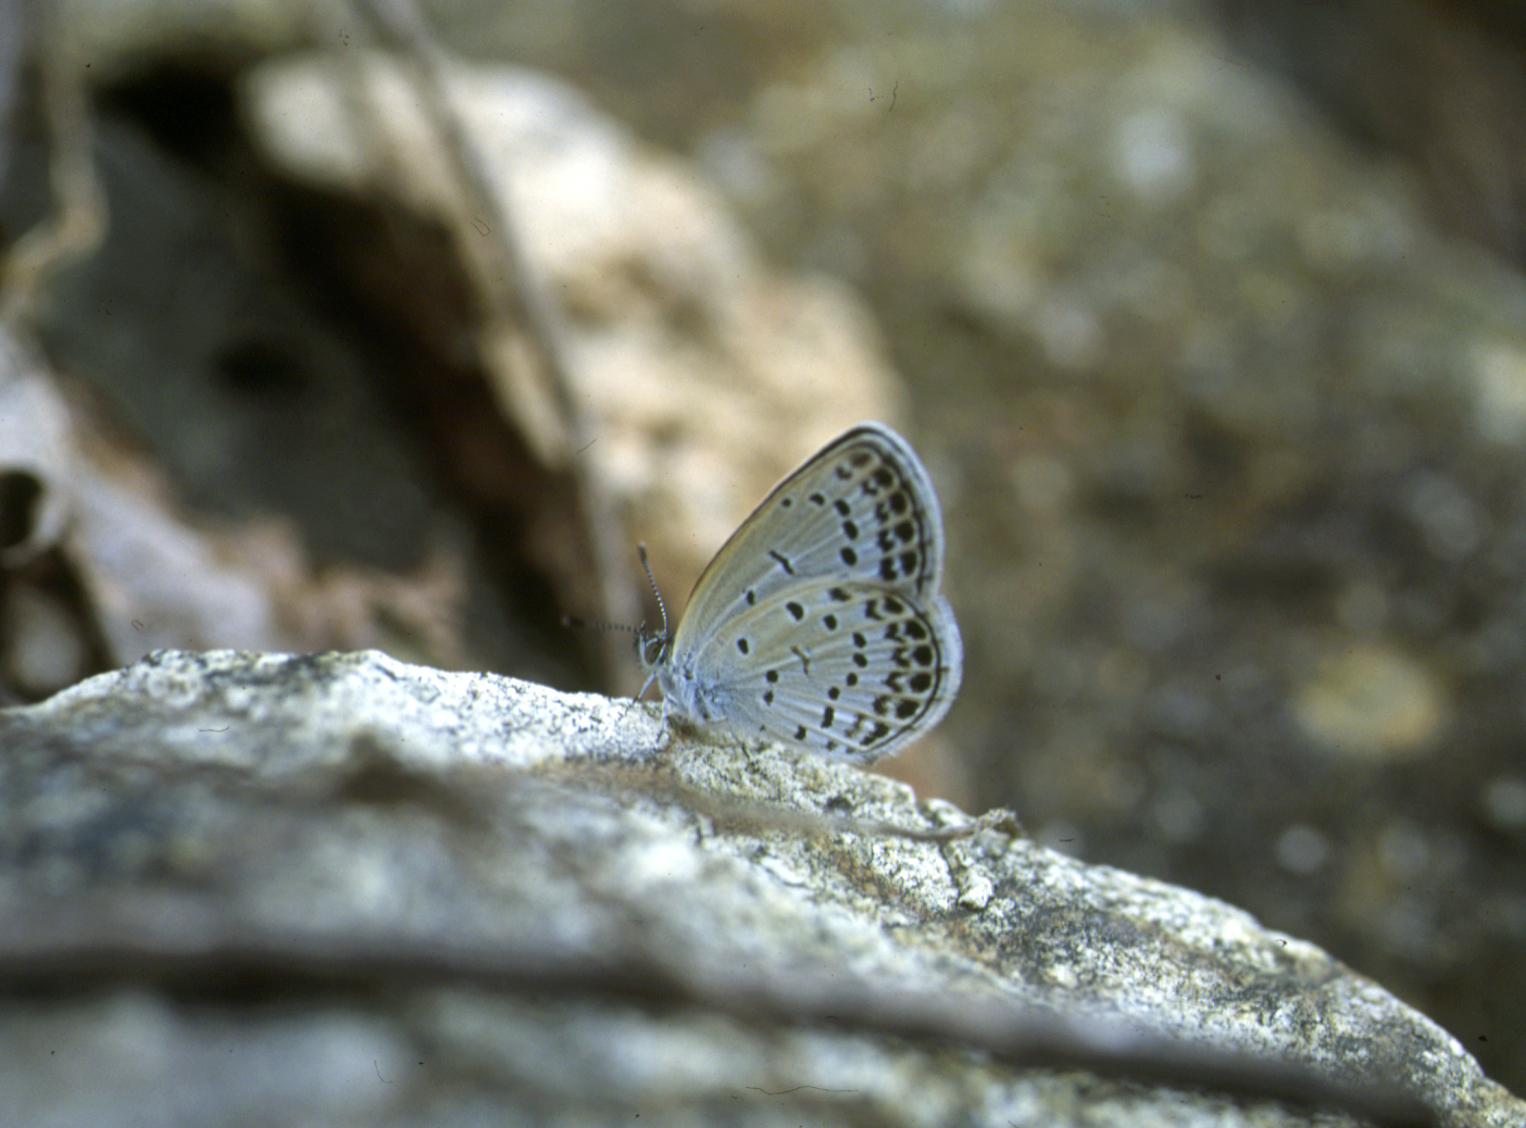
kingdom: Animalia
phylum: Arthropoda
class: Insecta
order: Lepidoptera
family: Lycaenidae
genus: Pseudozizeeria
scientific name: Pseudozizeeria maha
